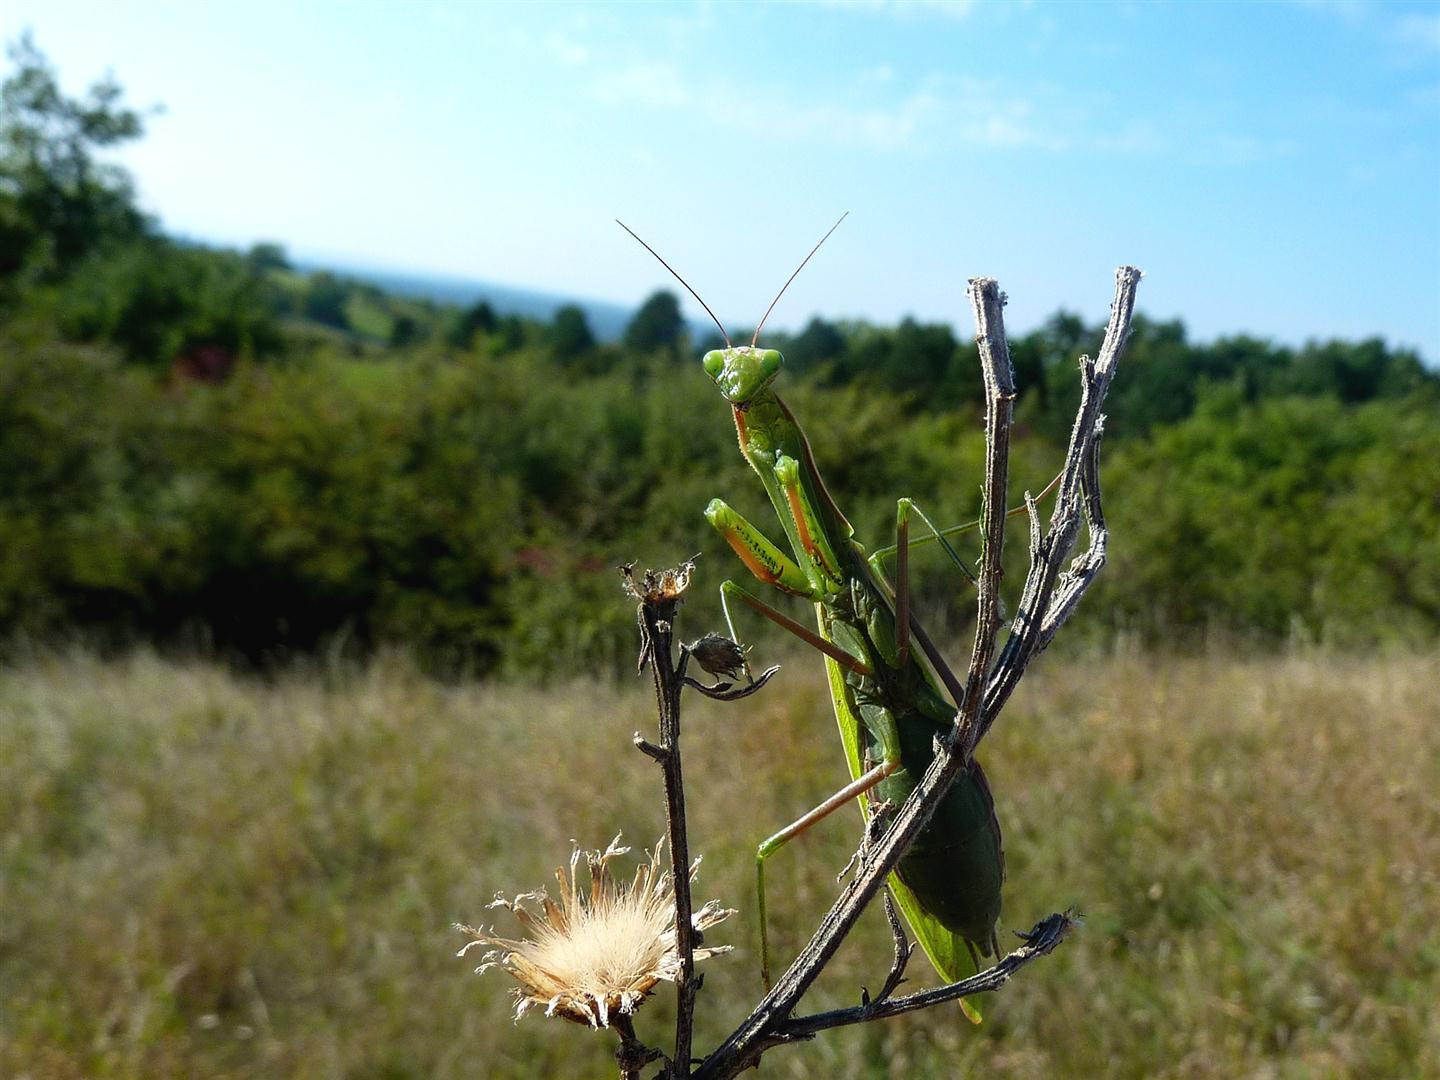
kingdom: Animalia
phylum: Arthropoda
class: Insecta
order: Mantodea
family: Mantidae
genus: Mantis
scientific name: Mantis religiosa
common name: Praying mantis
